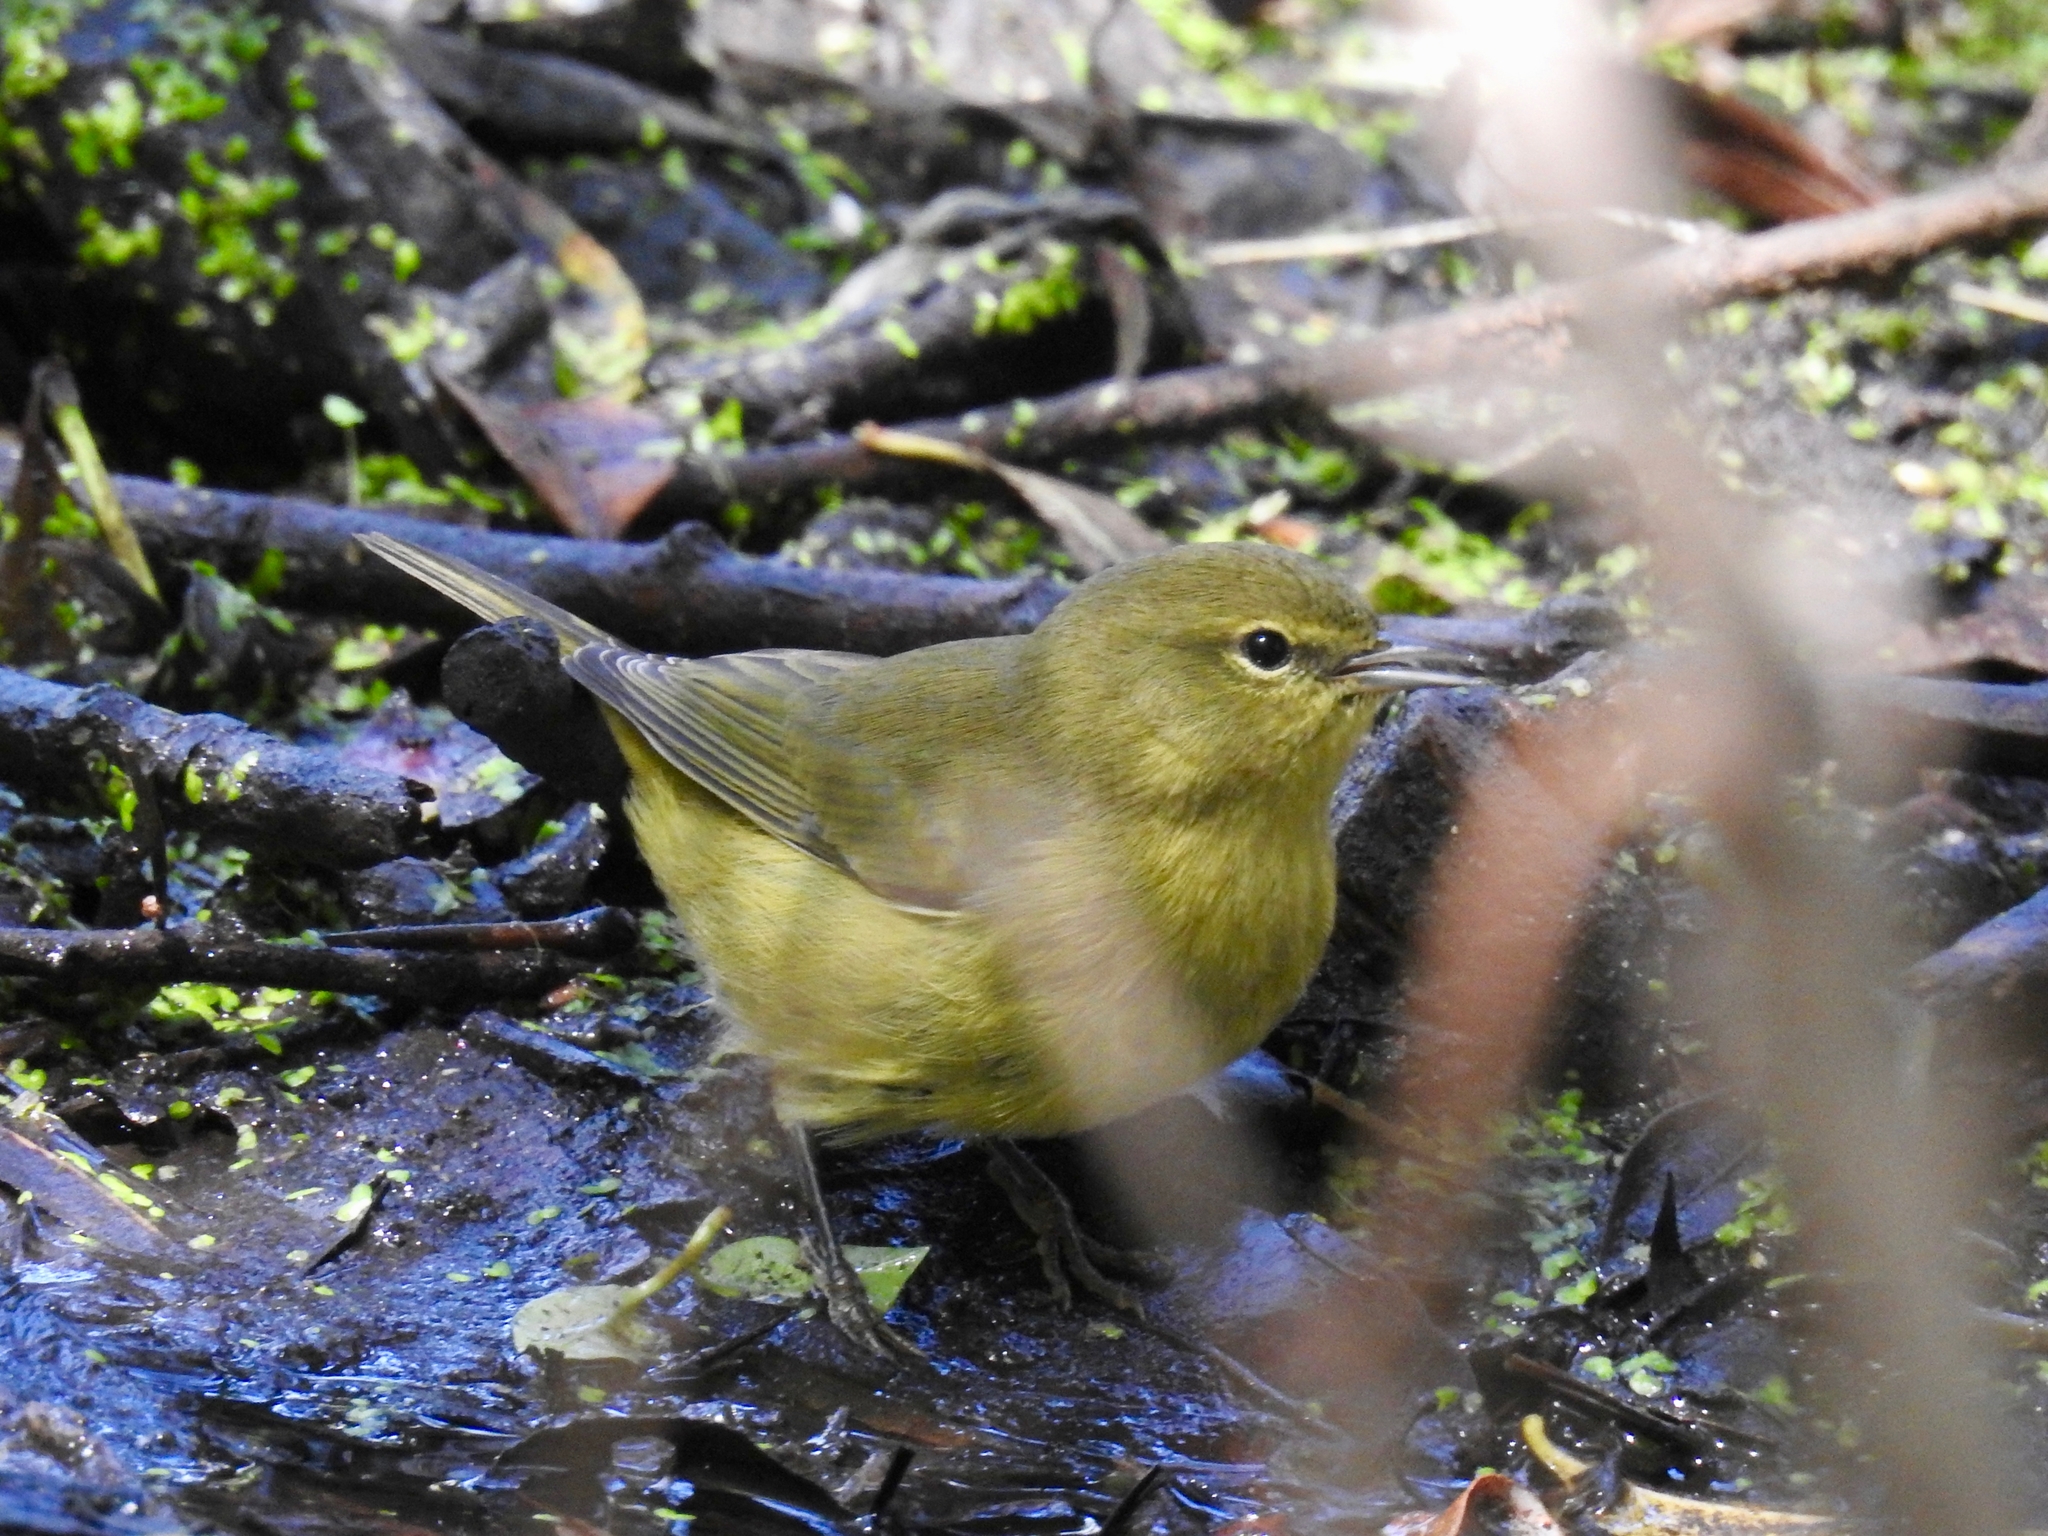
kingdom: Animalia
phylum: Chordata
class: Aves
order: Passeriformes
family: Parulidae
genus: Leiothlypis
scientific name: Leiothlypis celata
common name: Orange-crowned warbler
